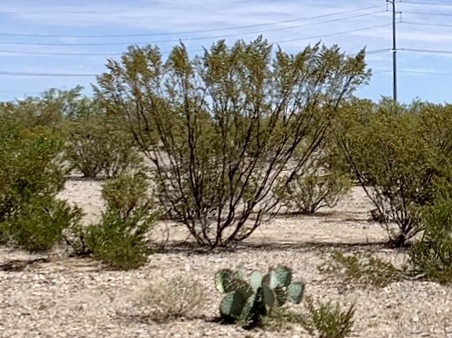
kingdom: Plantae
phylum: Tracheophyta
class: Magnoliopsida
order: Zygophyllales
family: Zygophyllaceae
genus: Larrea
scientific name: Larrea tridentata
